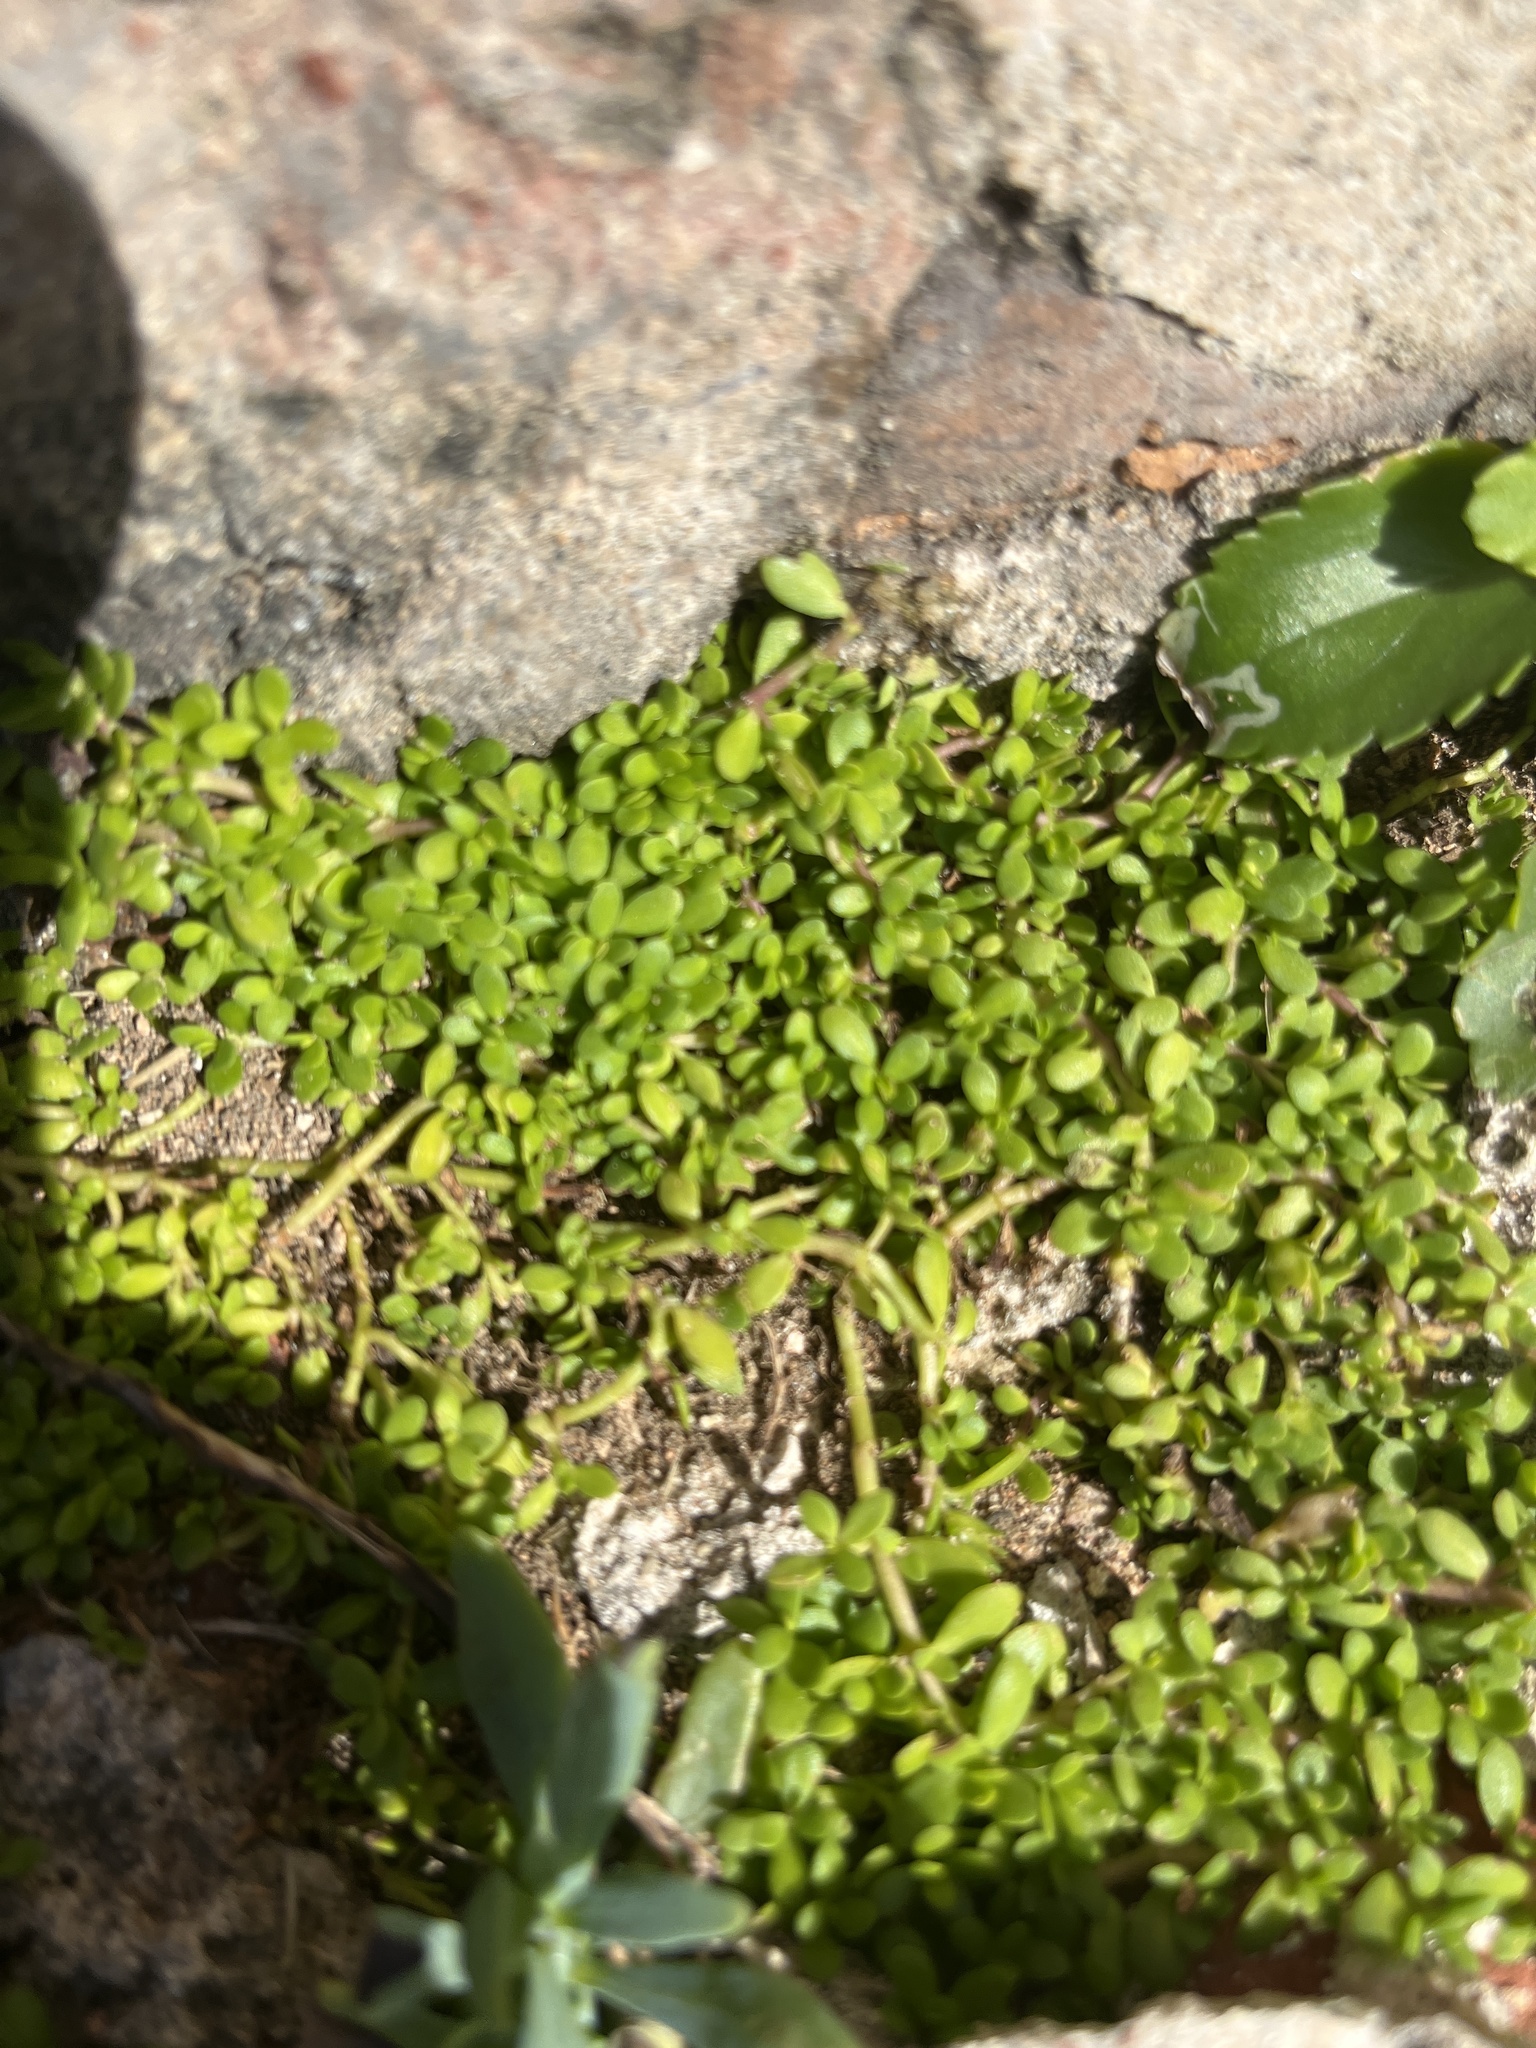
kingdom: Plantae
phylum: Tracheophyta
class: Magnoliopsida
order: Lamiales
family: Plantaginaceae
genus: Bacopa
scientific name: Bacopa monnieri
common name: Indian-pennywort
